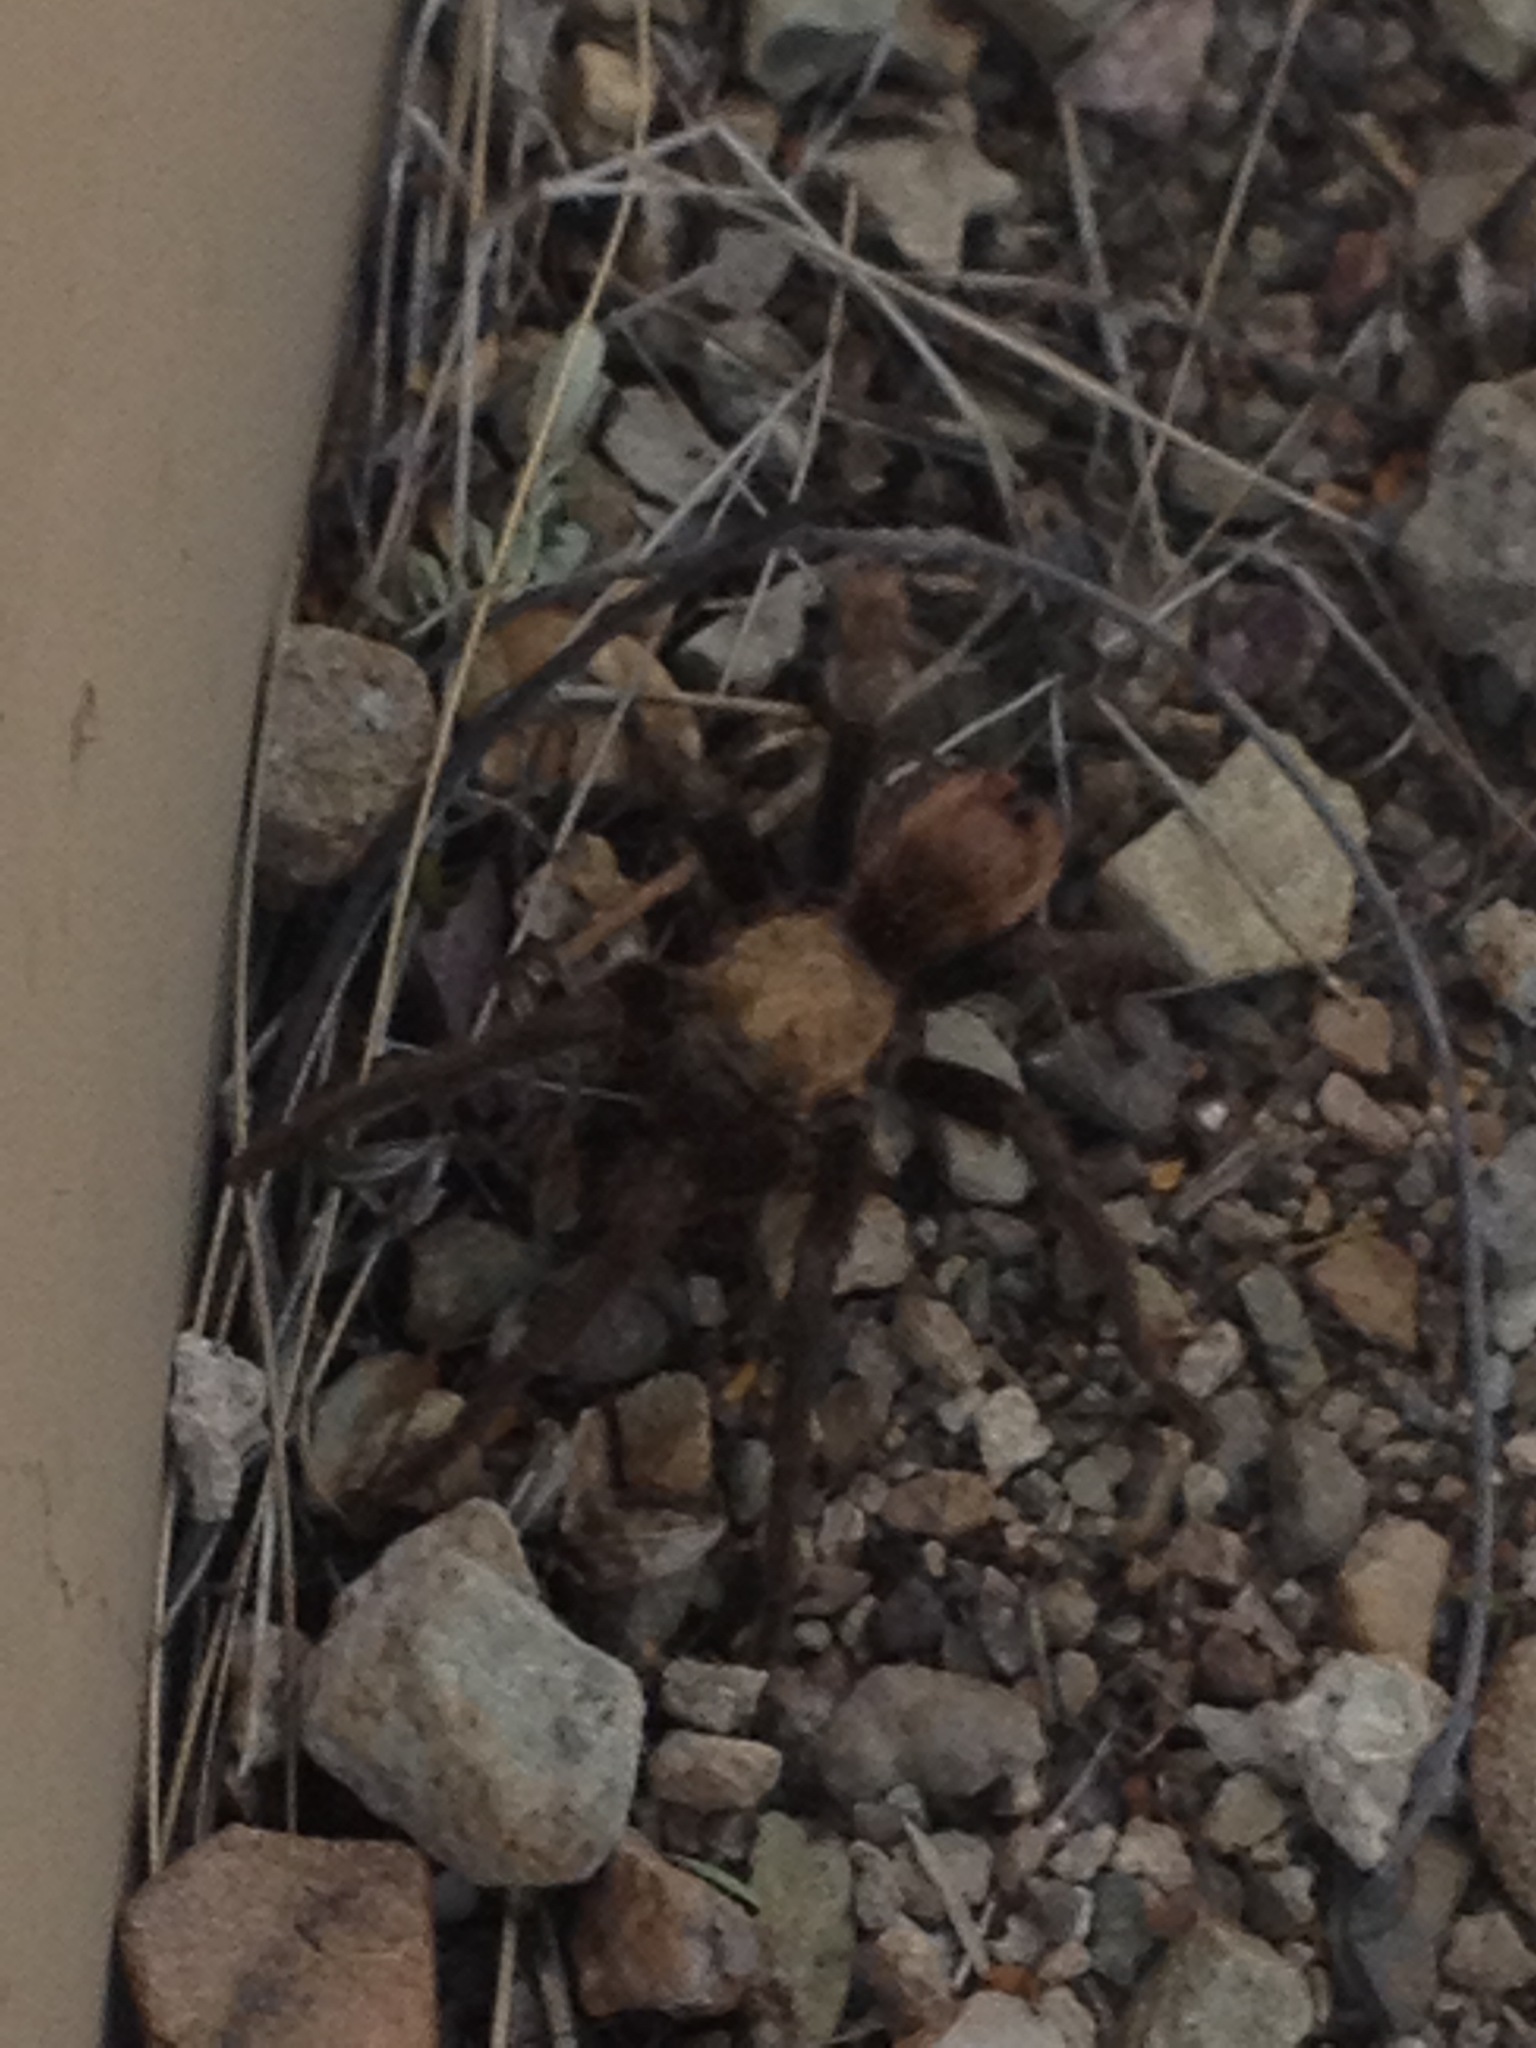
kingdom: Animalia
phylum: Arthropoda
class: Arachnida
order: Araneae
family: Theraphosidae
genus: Aphonopelma
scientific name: Aphonopelma chalcodes
